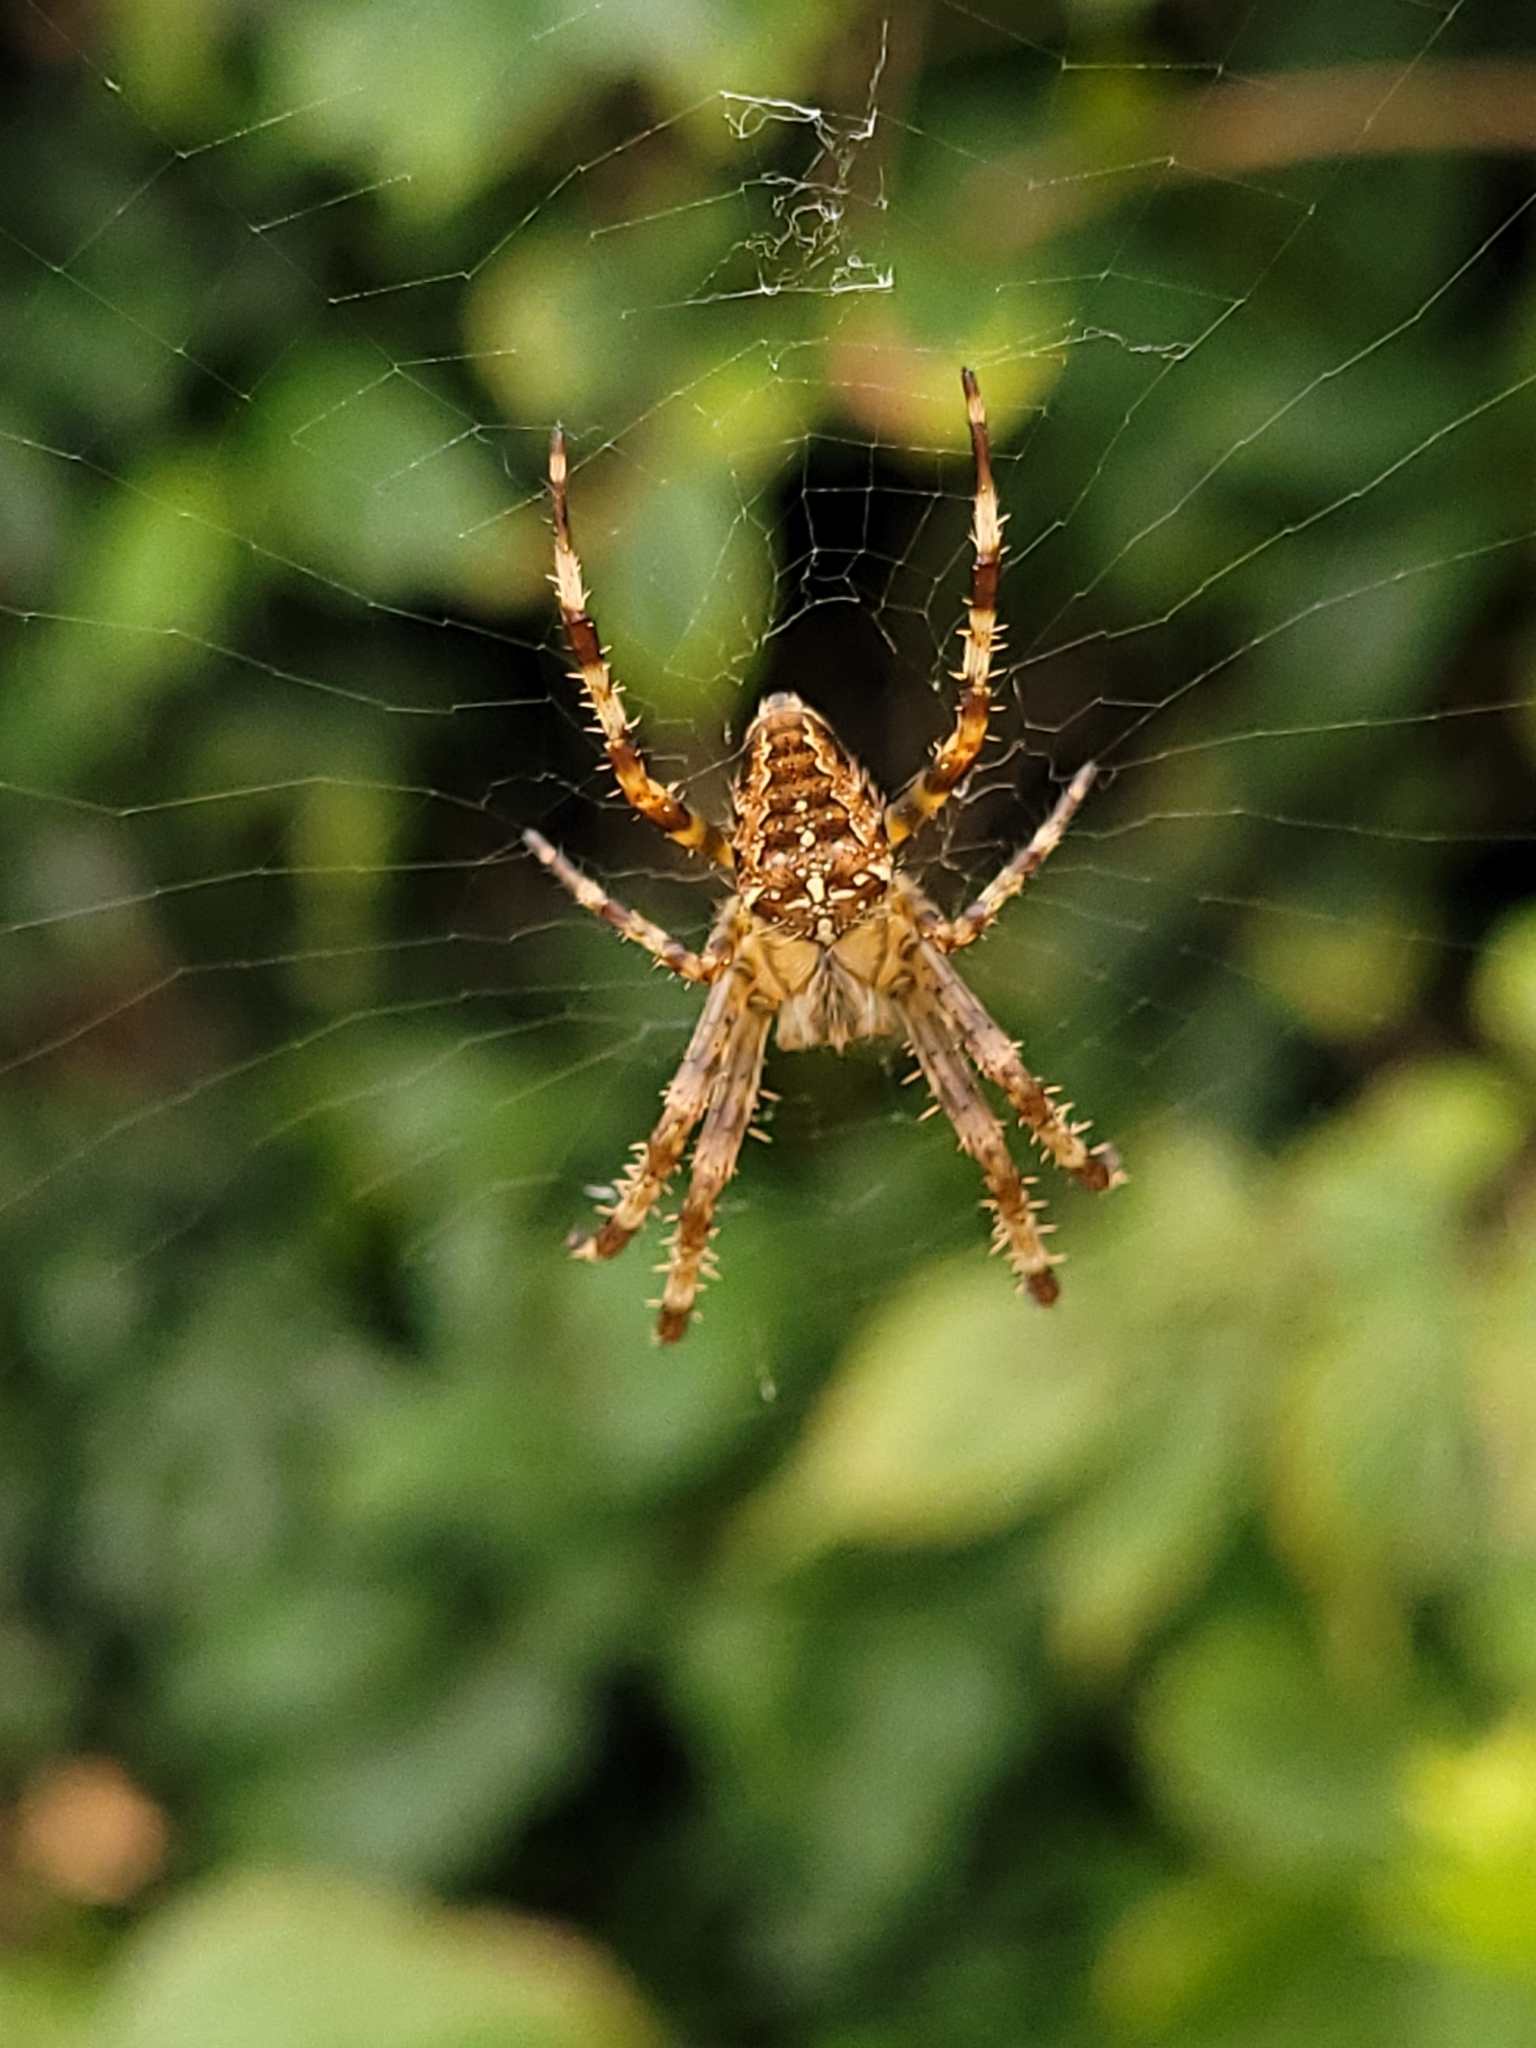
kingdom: Animalia
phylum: Arthropoda
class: Arachnida
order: Araneae
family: Araneidae
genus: Araneus
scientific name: Araneus diadematus
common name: Cross orbweaver
